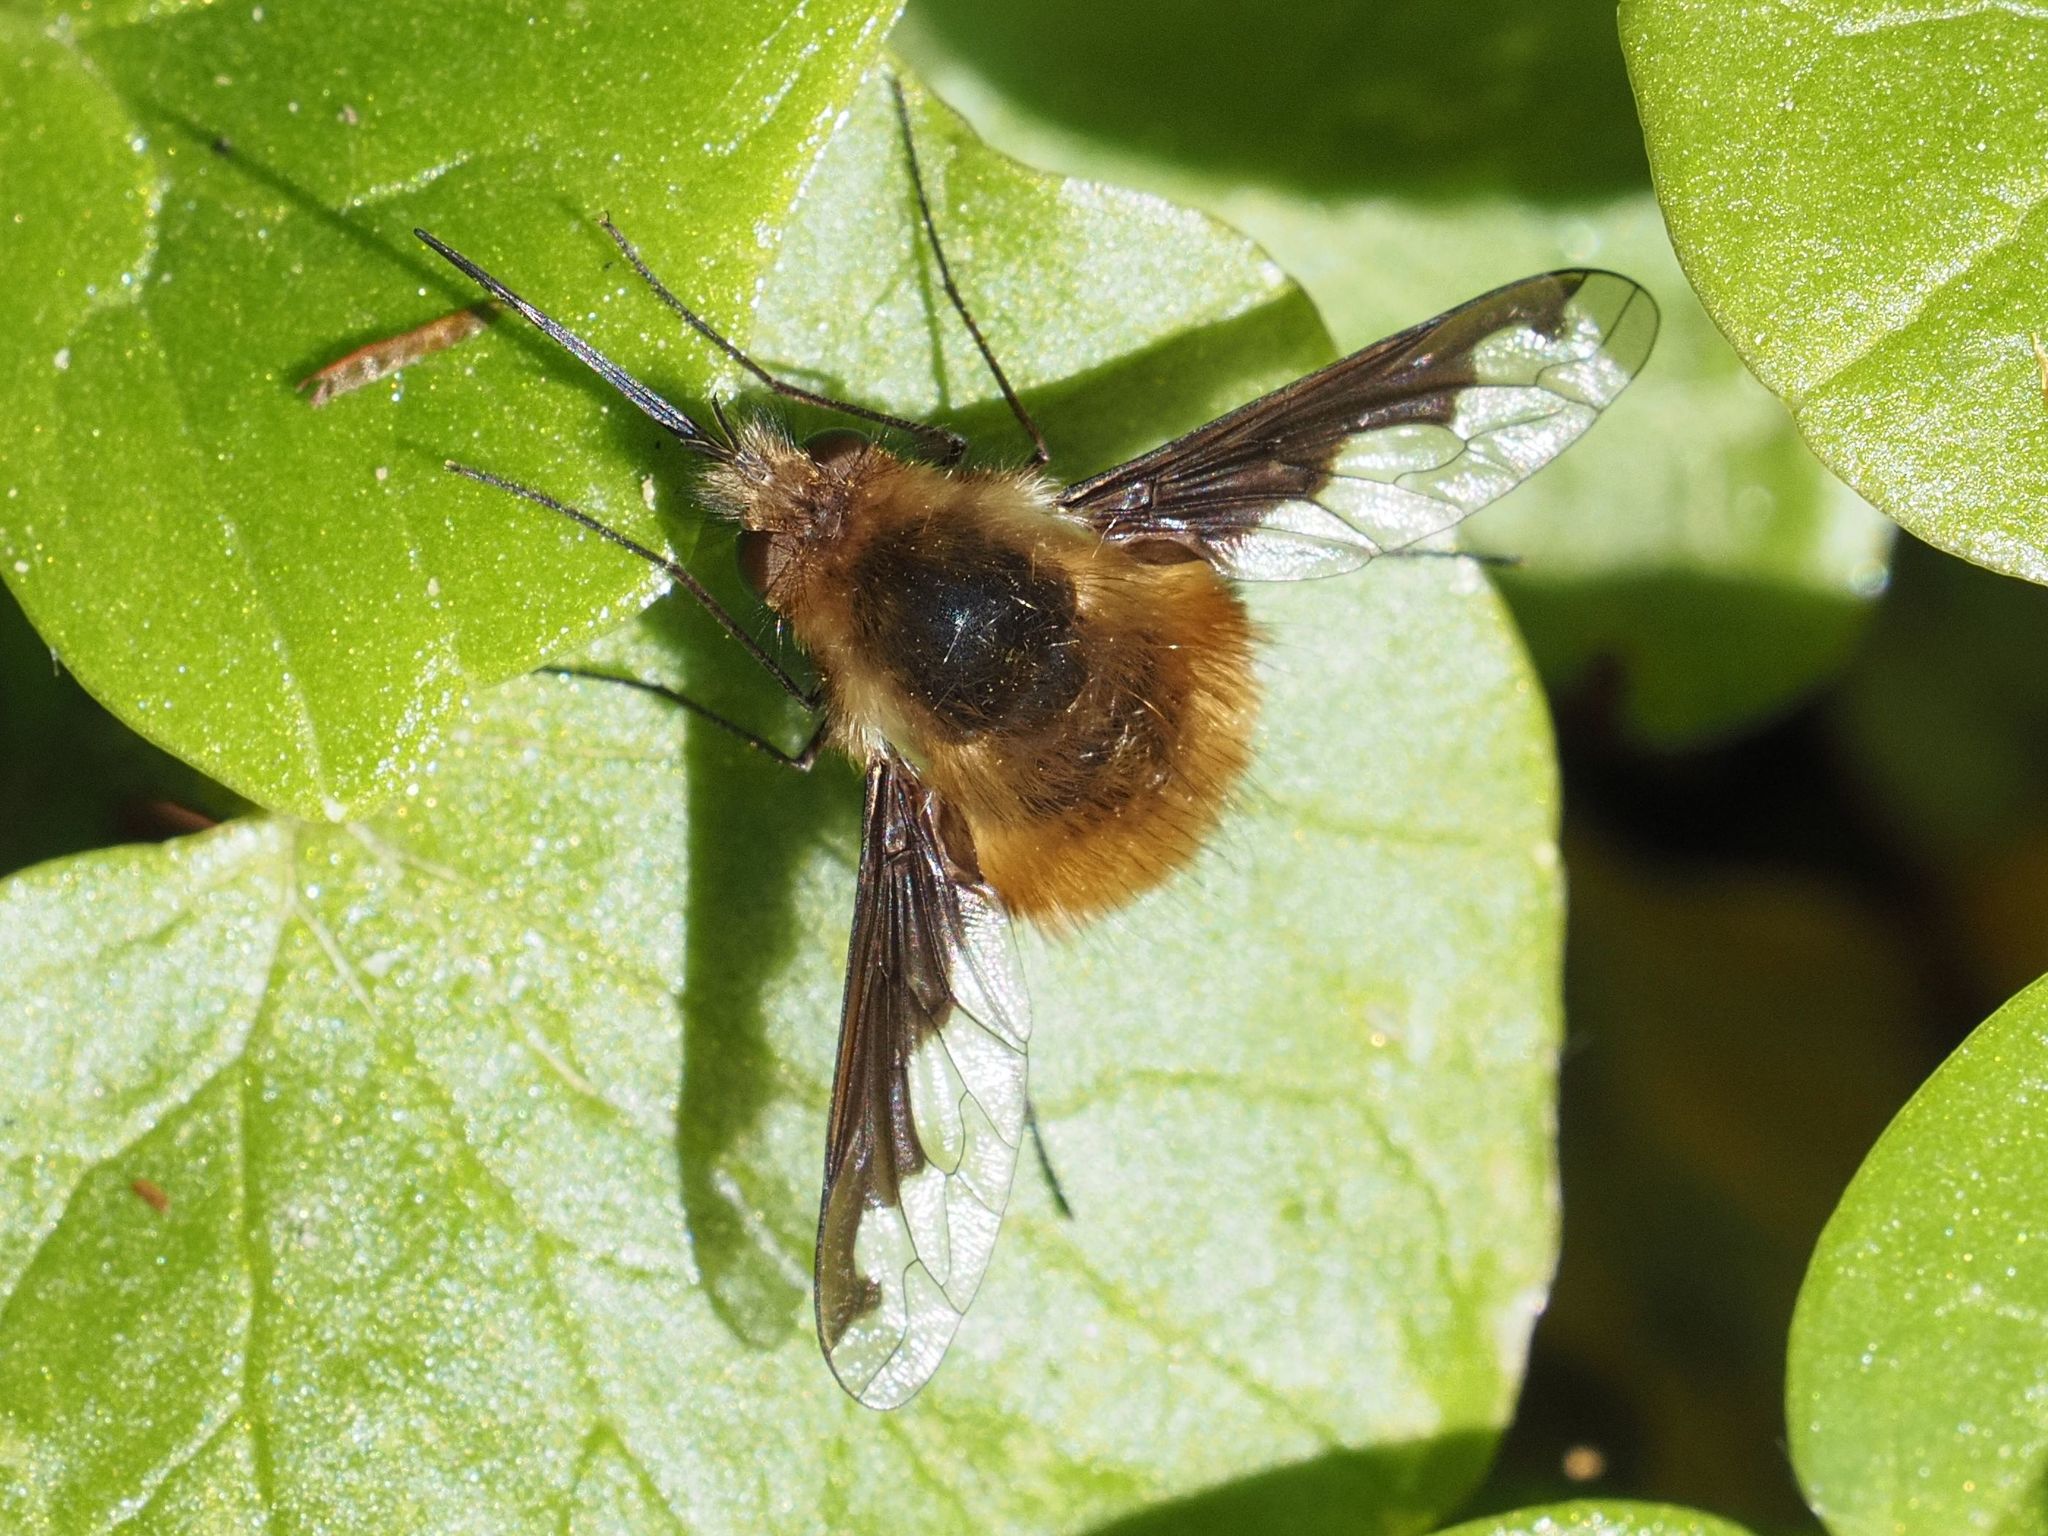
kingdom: Animalia
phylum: Arthropoda
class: Insecta
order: Diptera
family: Bombyliidae
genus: Bombylius
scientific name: Bombylius major
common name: Bee fly
